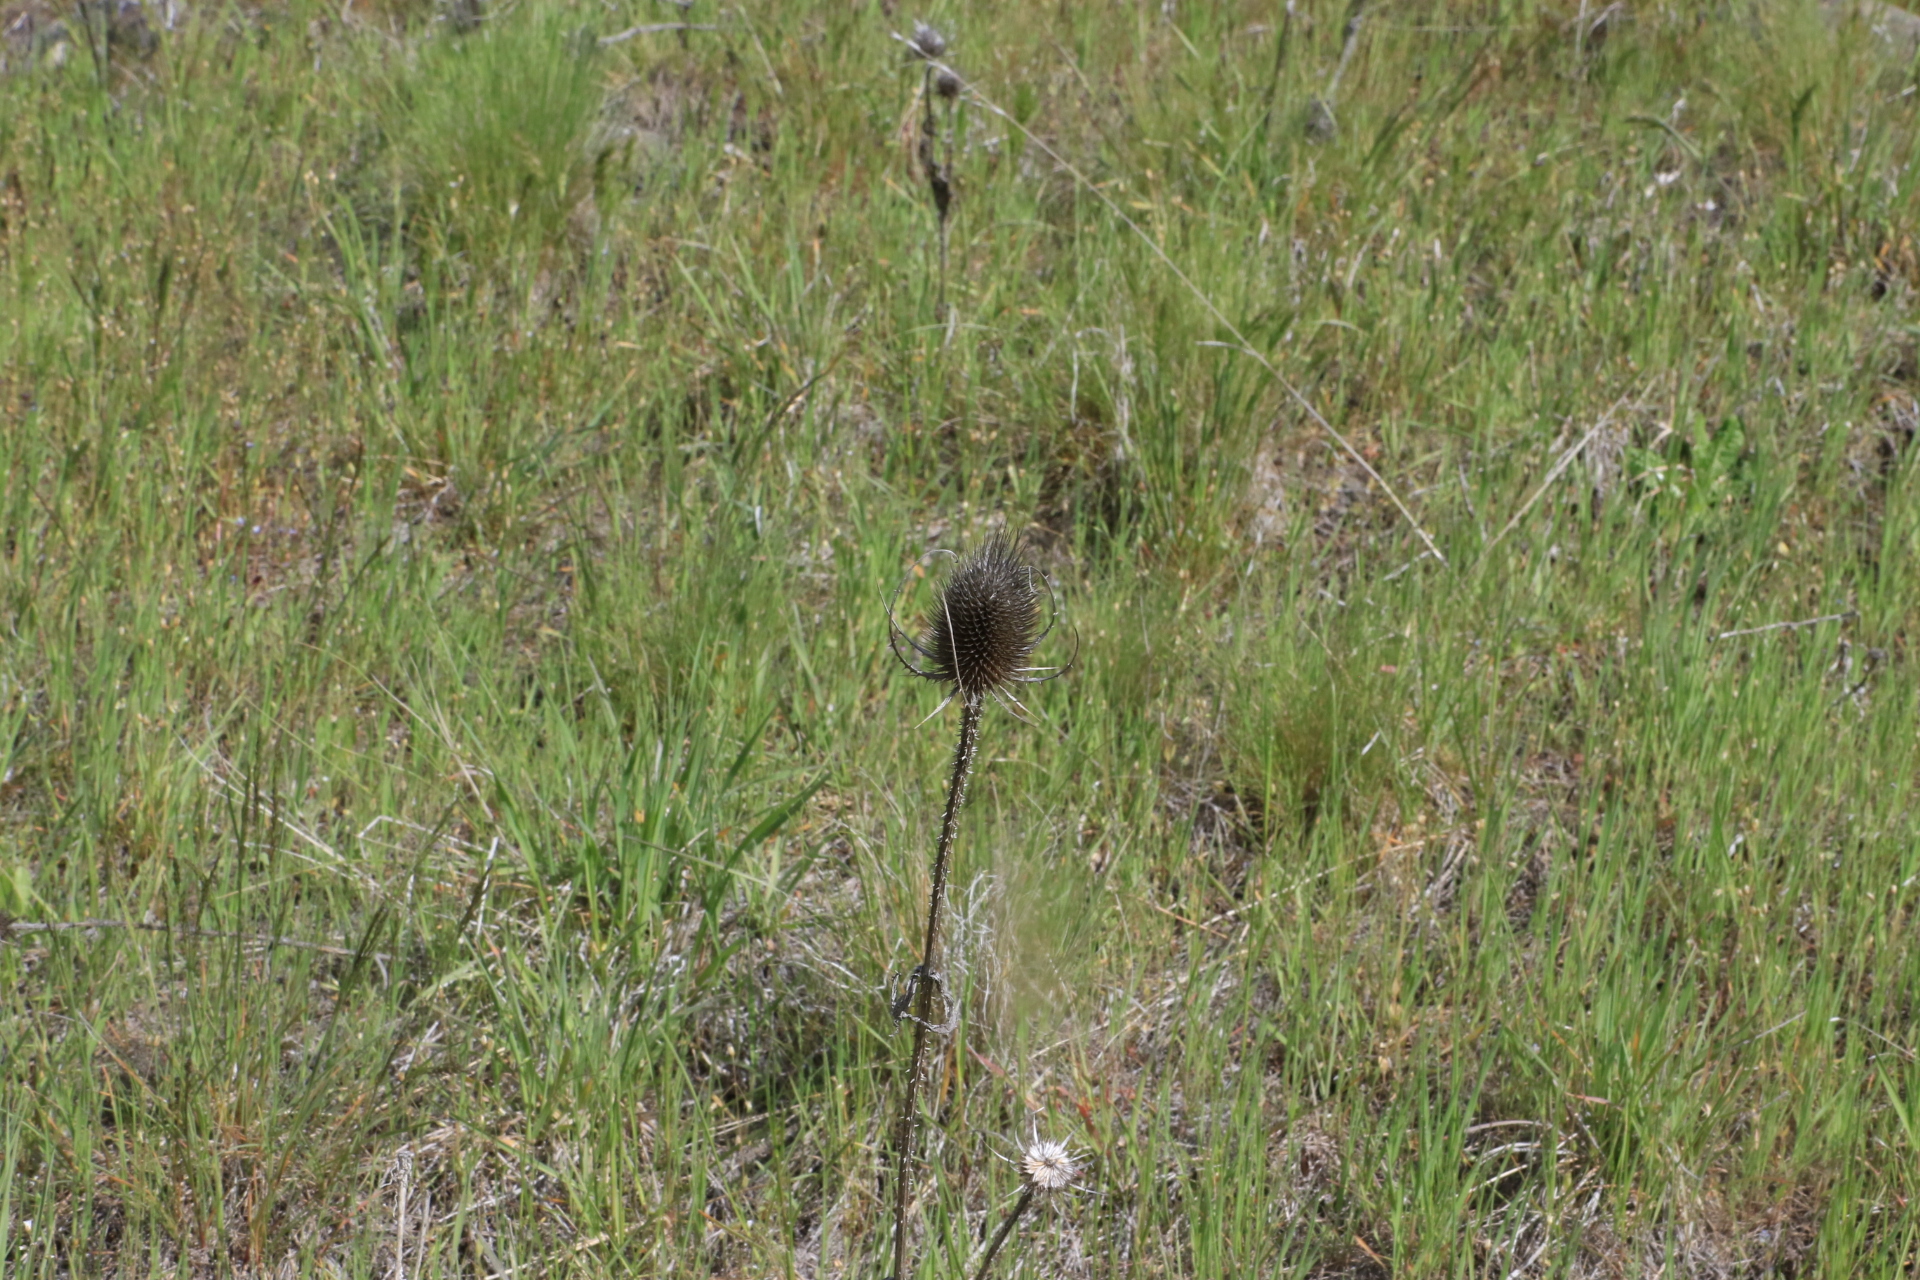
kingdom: Plantae
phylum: Tracheophyta
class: Magnoliopsida
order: Dipsacales
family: Caprifoliaceae
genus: Dipsacus
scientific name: Dipsacus fullonum
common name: Teasel
